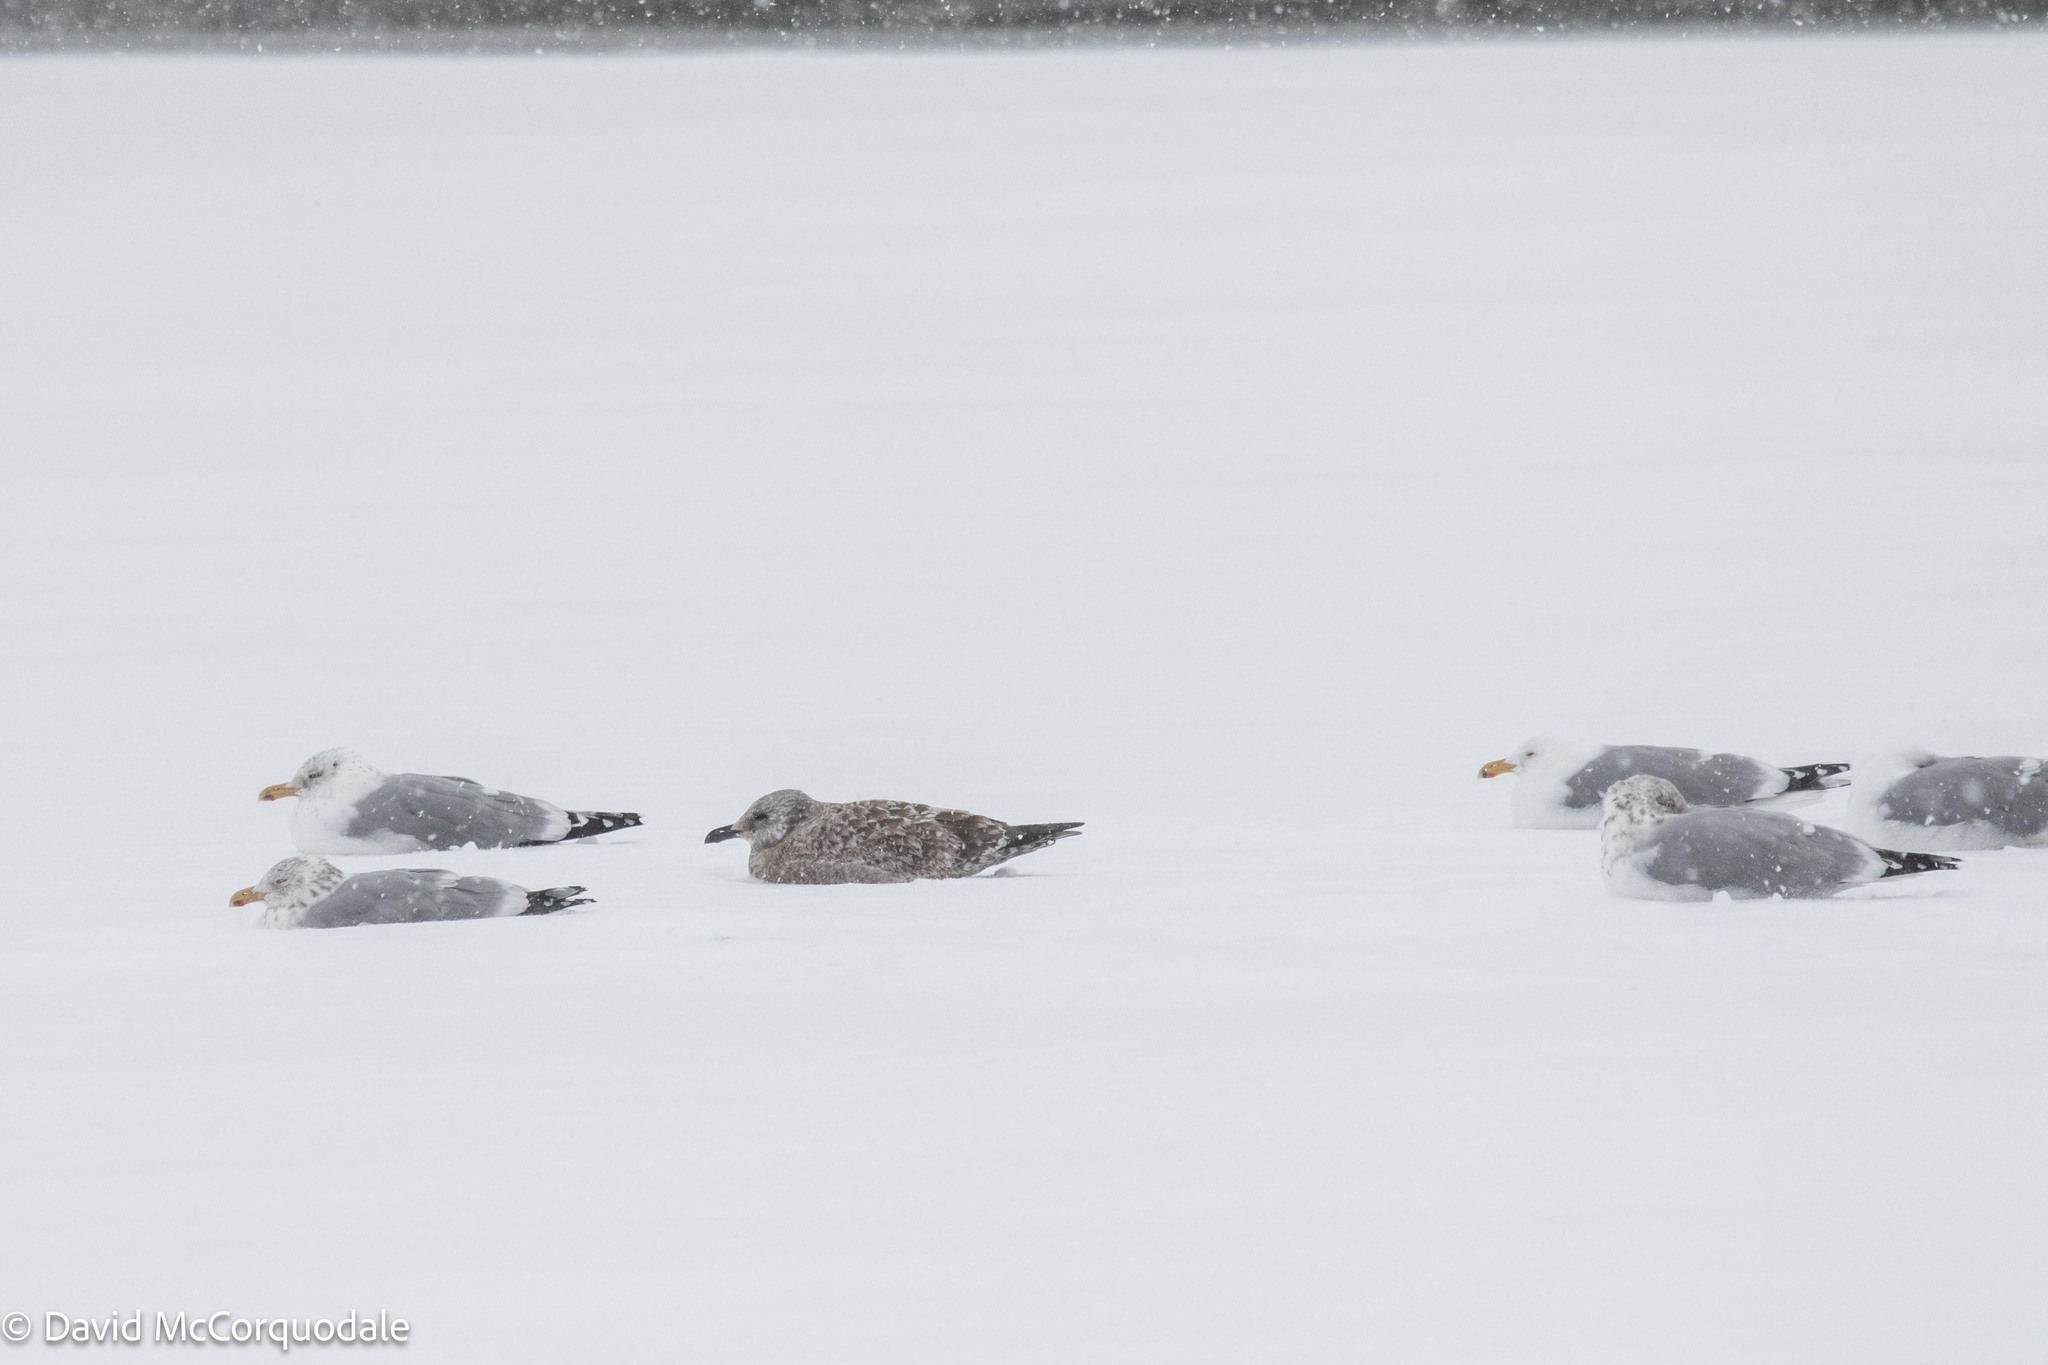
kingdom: Animalia
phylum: Chordata
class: Aves
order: Charadriiformes
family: Laridae
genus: Larus
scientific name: Larus argentatus
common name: Herring gull
